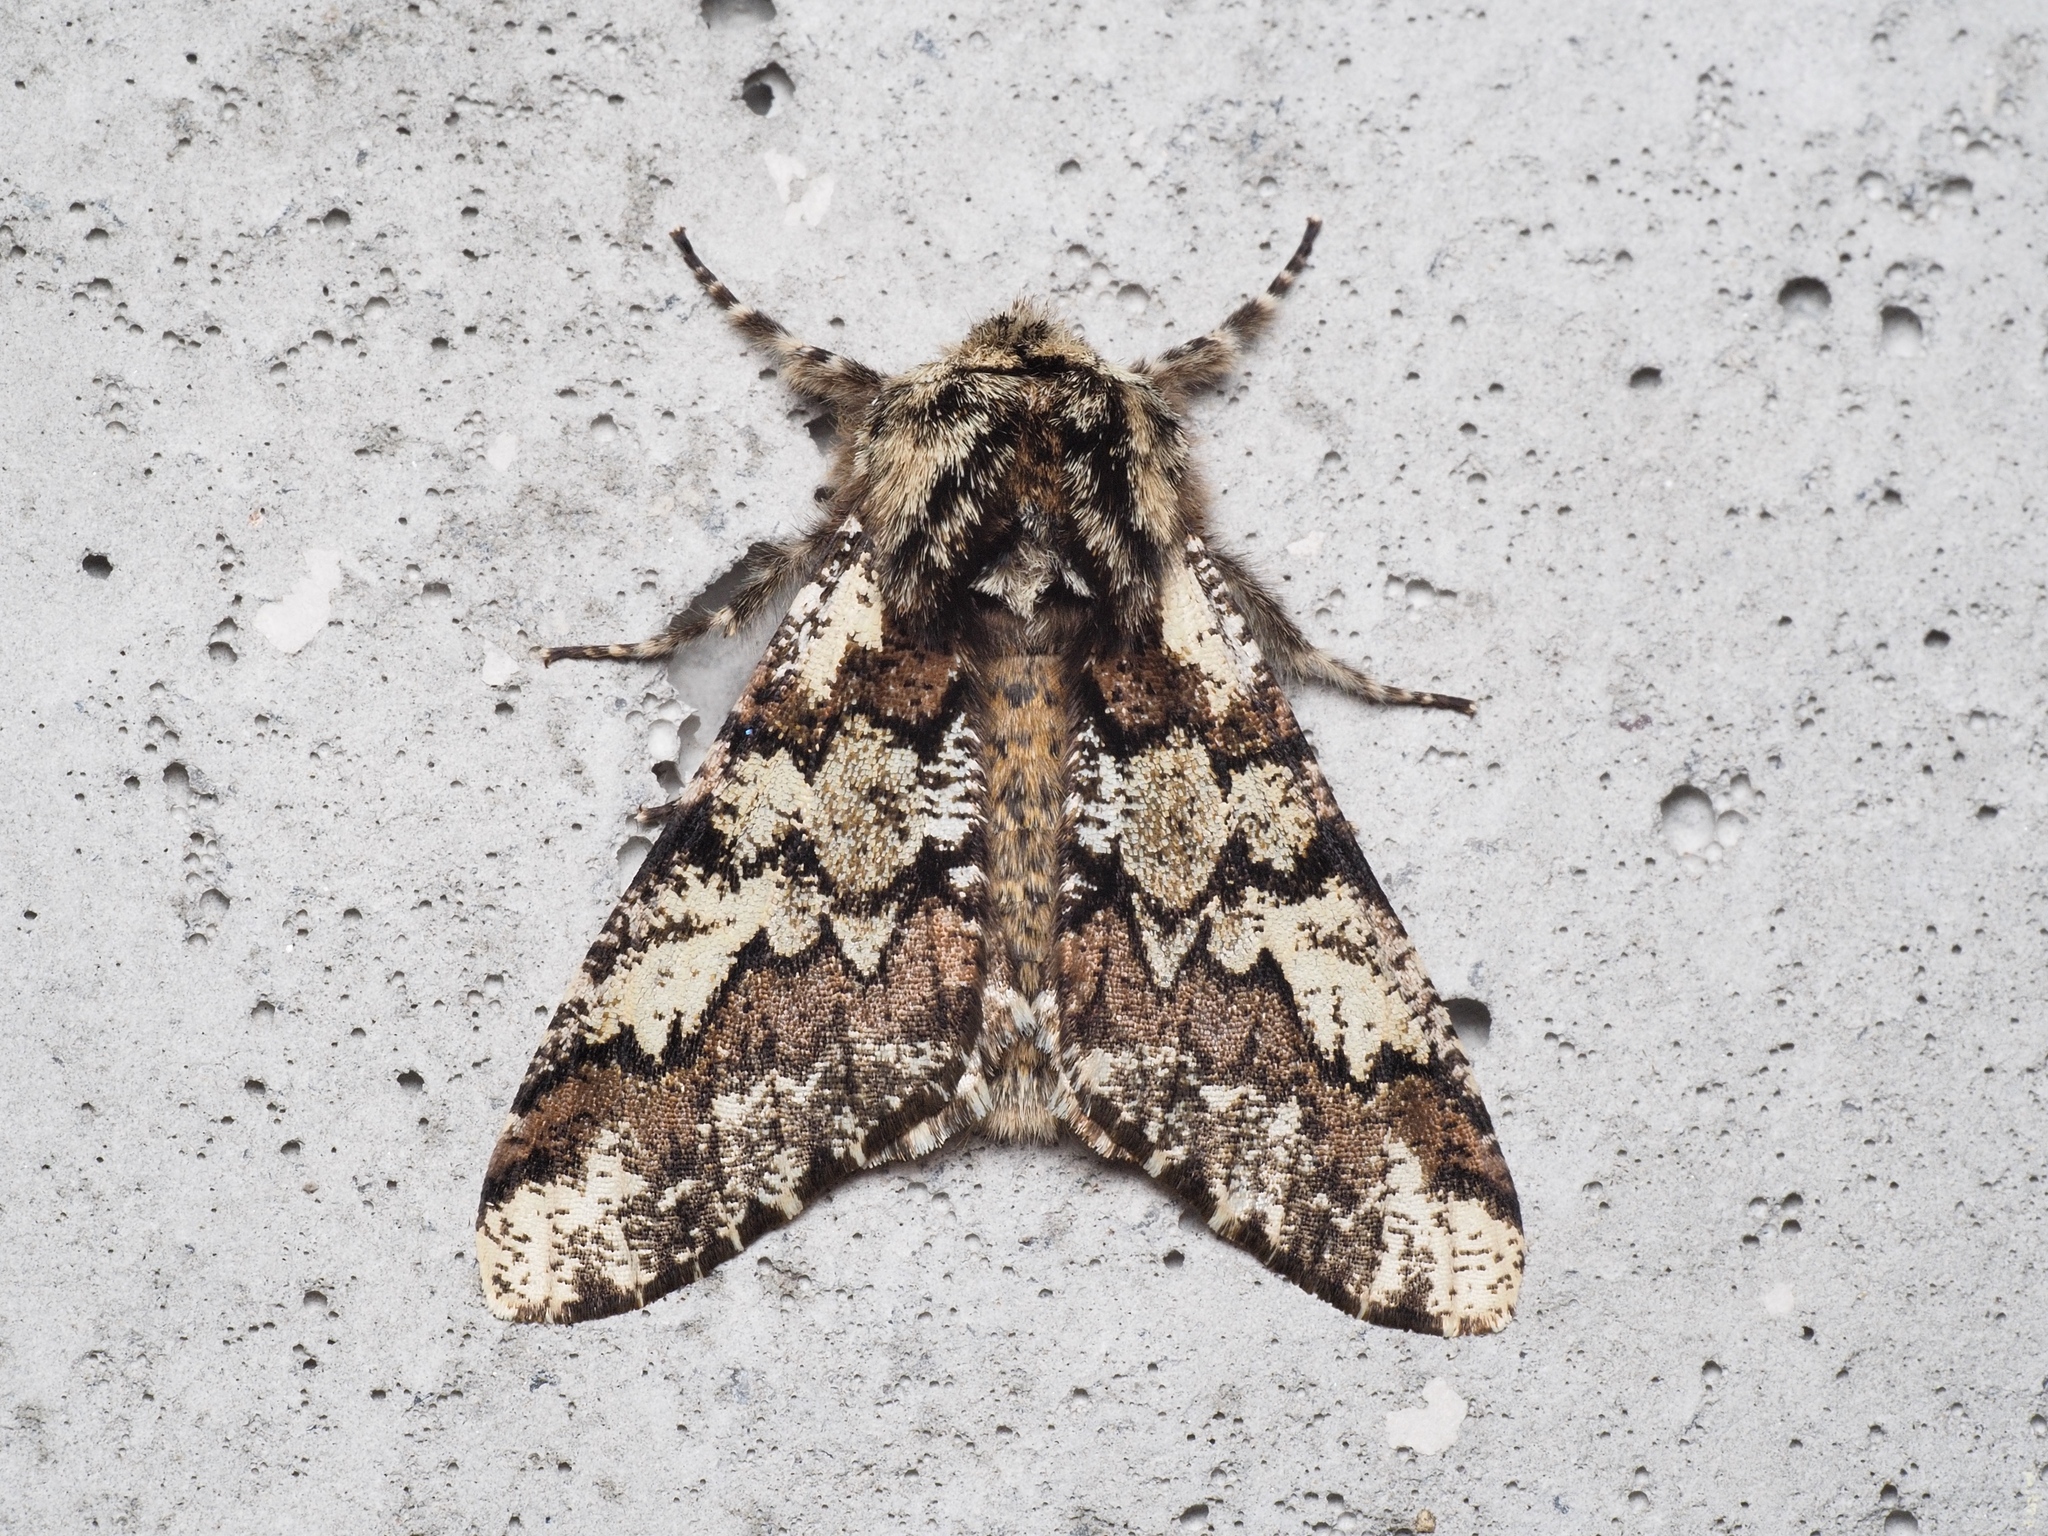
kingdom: Animalia
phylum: Arthropoda
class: Insecta
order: Lepidoptera
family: Geometridae
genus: Biston
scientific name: Biston strataria
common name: Oak beauty
